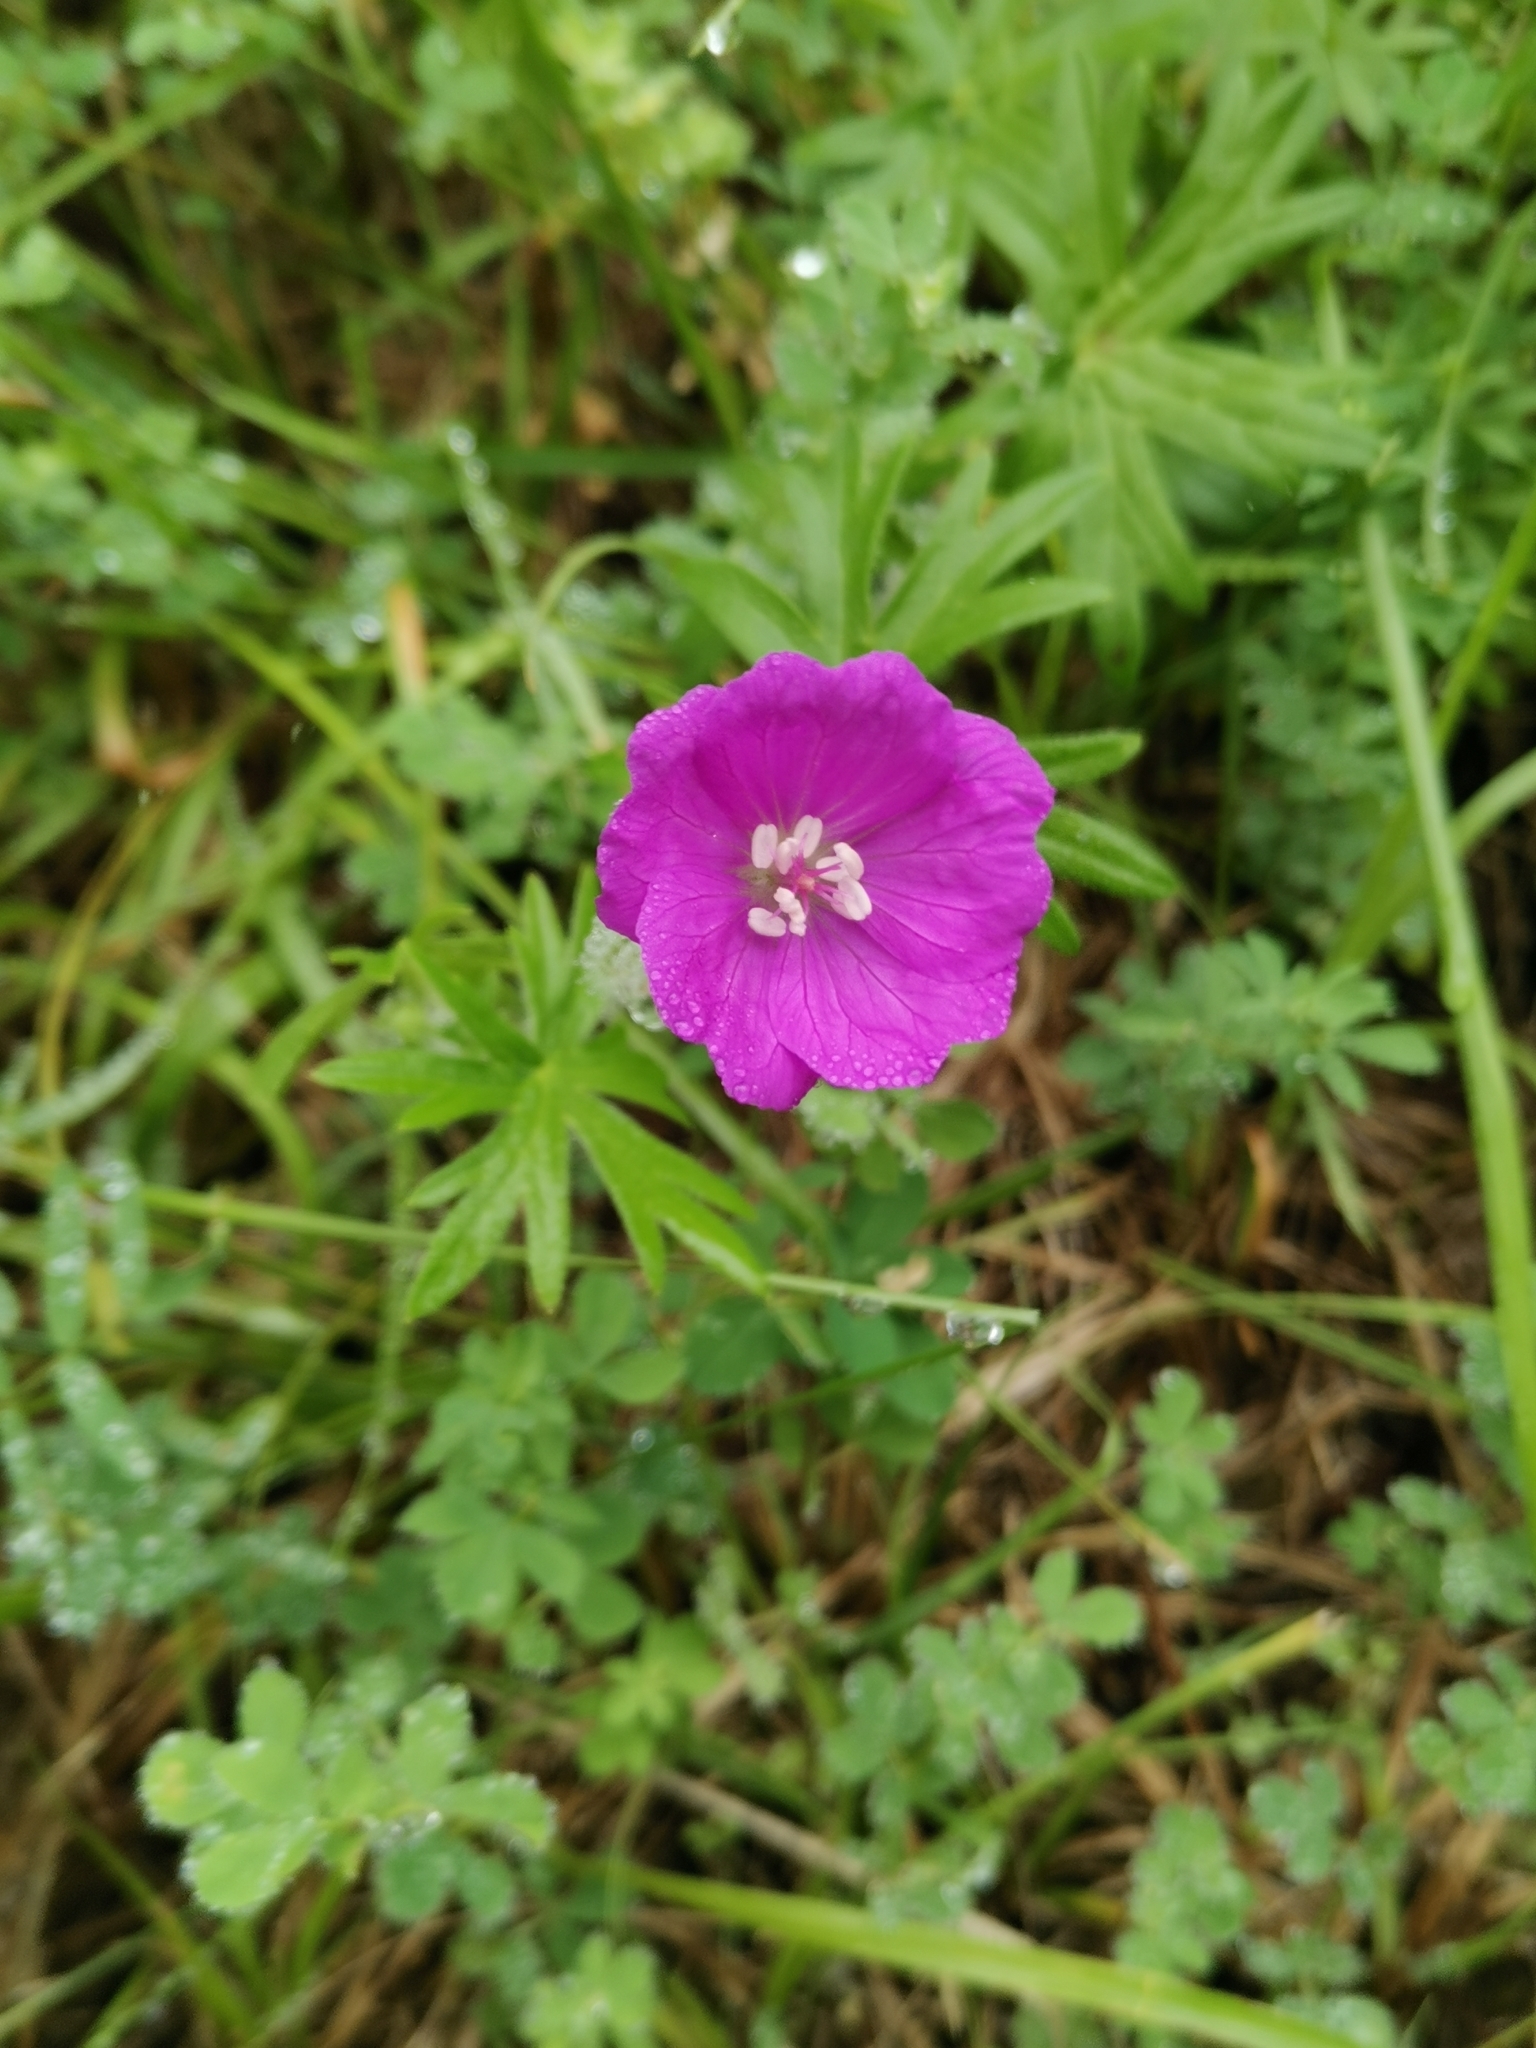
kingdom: Plantae
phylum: Tracheophyta
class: Magnoliopsida
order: Geraniales
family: Geraniaceae
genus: Geranium
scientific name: Geranium sanguineum
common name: Bloody crane's-bill
